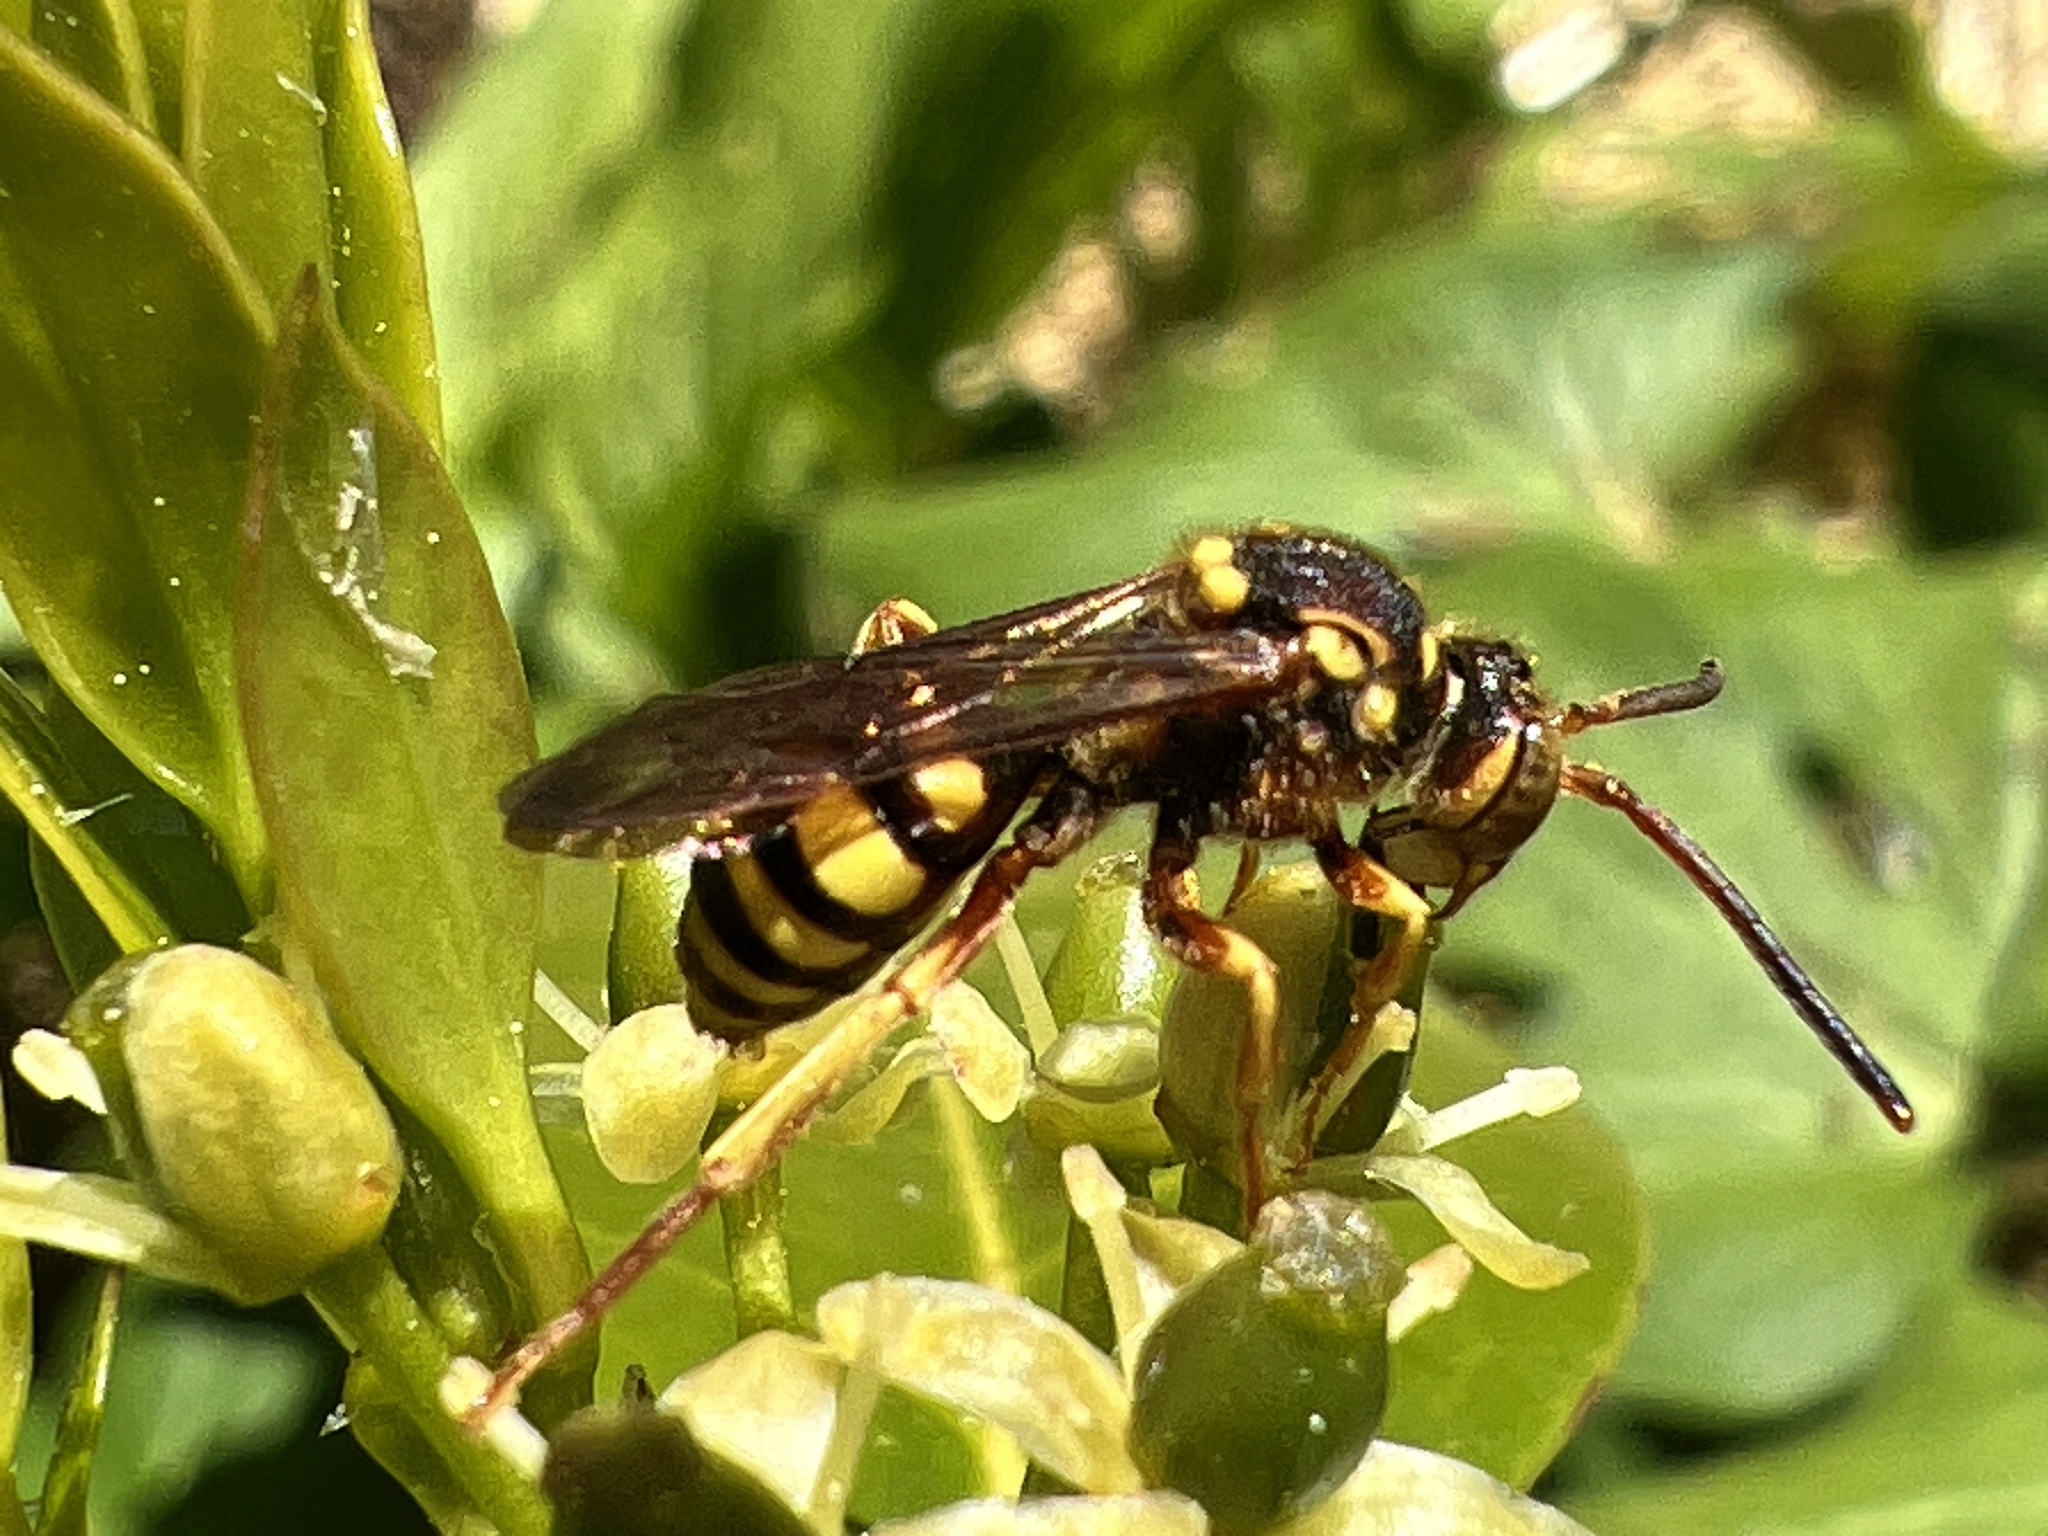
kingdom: Animalia
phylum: Arthropoda
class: Insecta
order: Hymenoptera
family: Apidae
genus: Nomada
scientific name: Nomada luteoloides
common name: Black-and-yellow nomad bee
